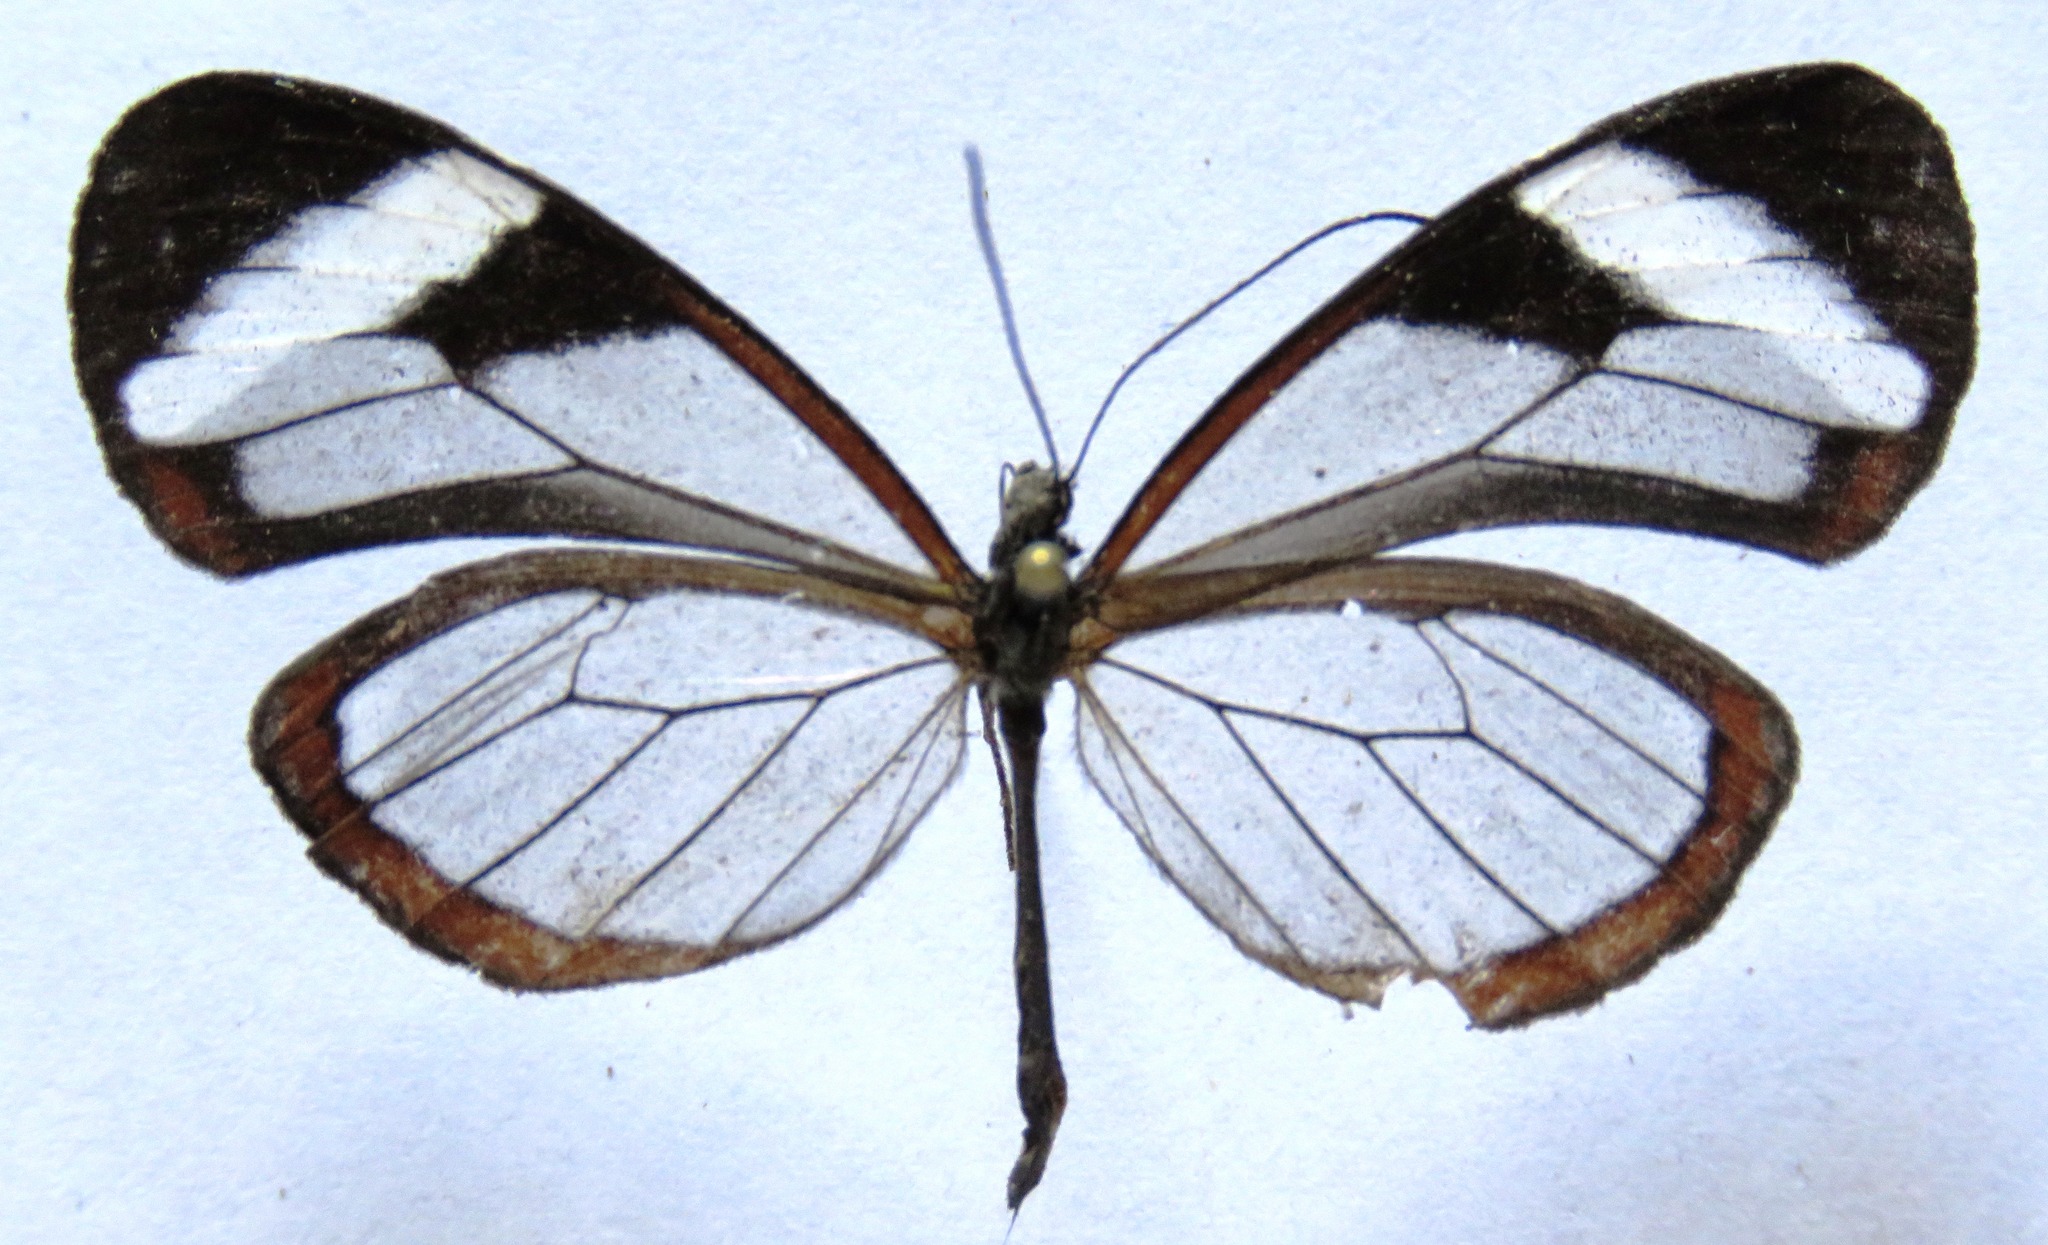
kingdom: Animalia
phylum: Arthropoda
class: Insecta
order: Lepidoptera
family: Nymphalidae
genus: Oleria
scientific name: Oleria paula
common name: Paula's clearwing
